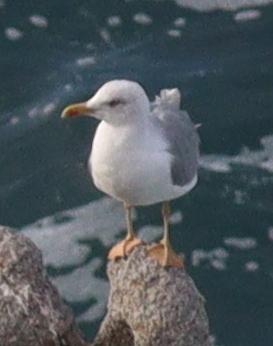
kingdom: Animalia
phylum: Chordata
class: Aves
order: Charadriiformes
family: Laridae
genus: Larus
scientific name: Larus michahellis
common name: Yellow-legged gull
